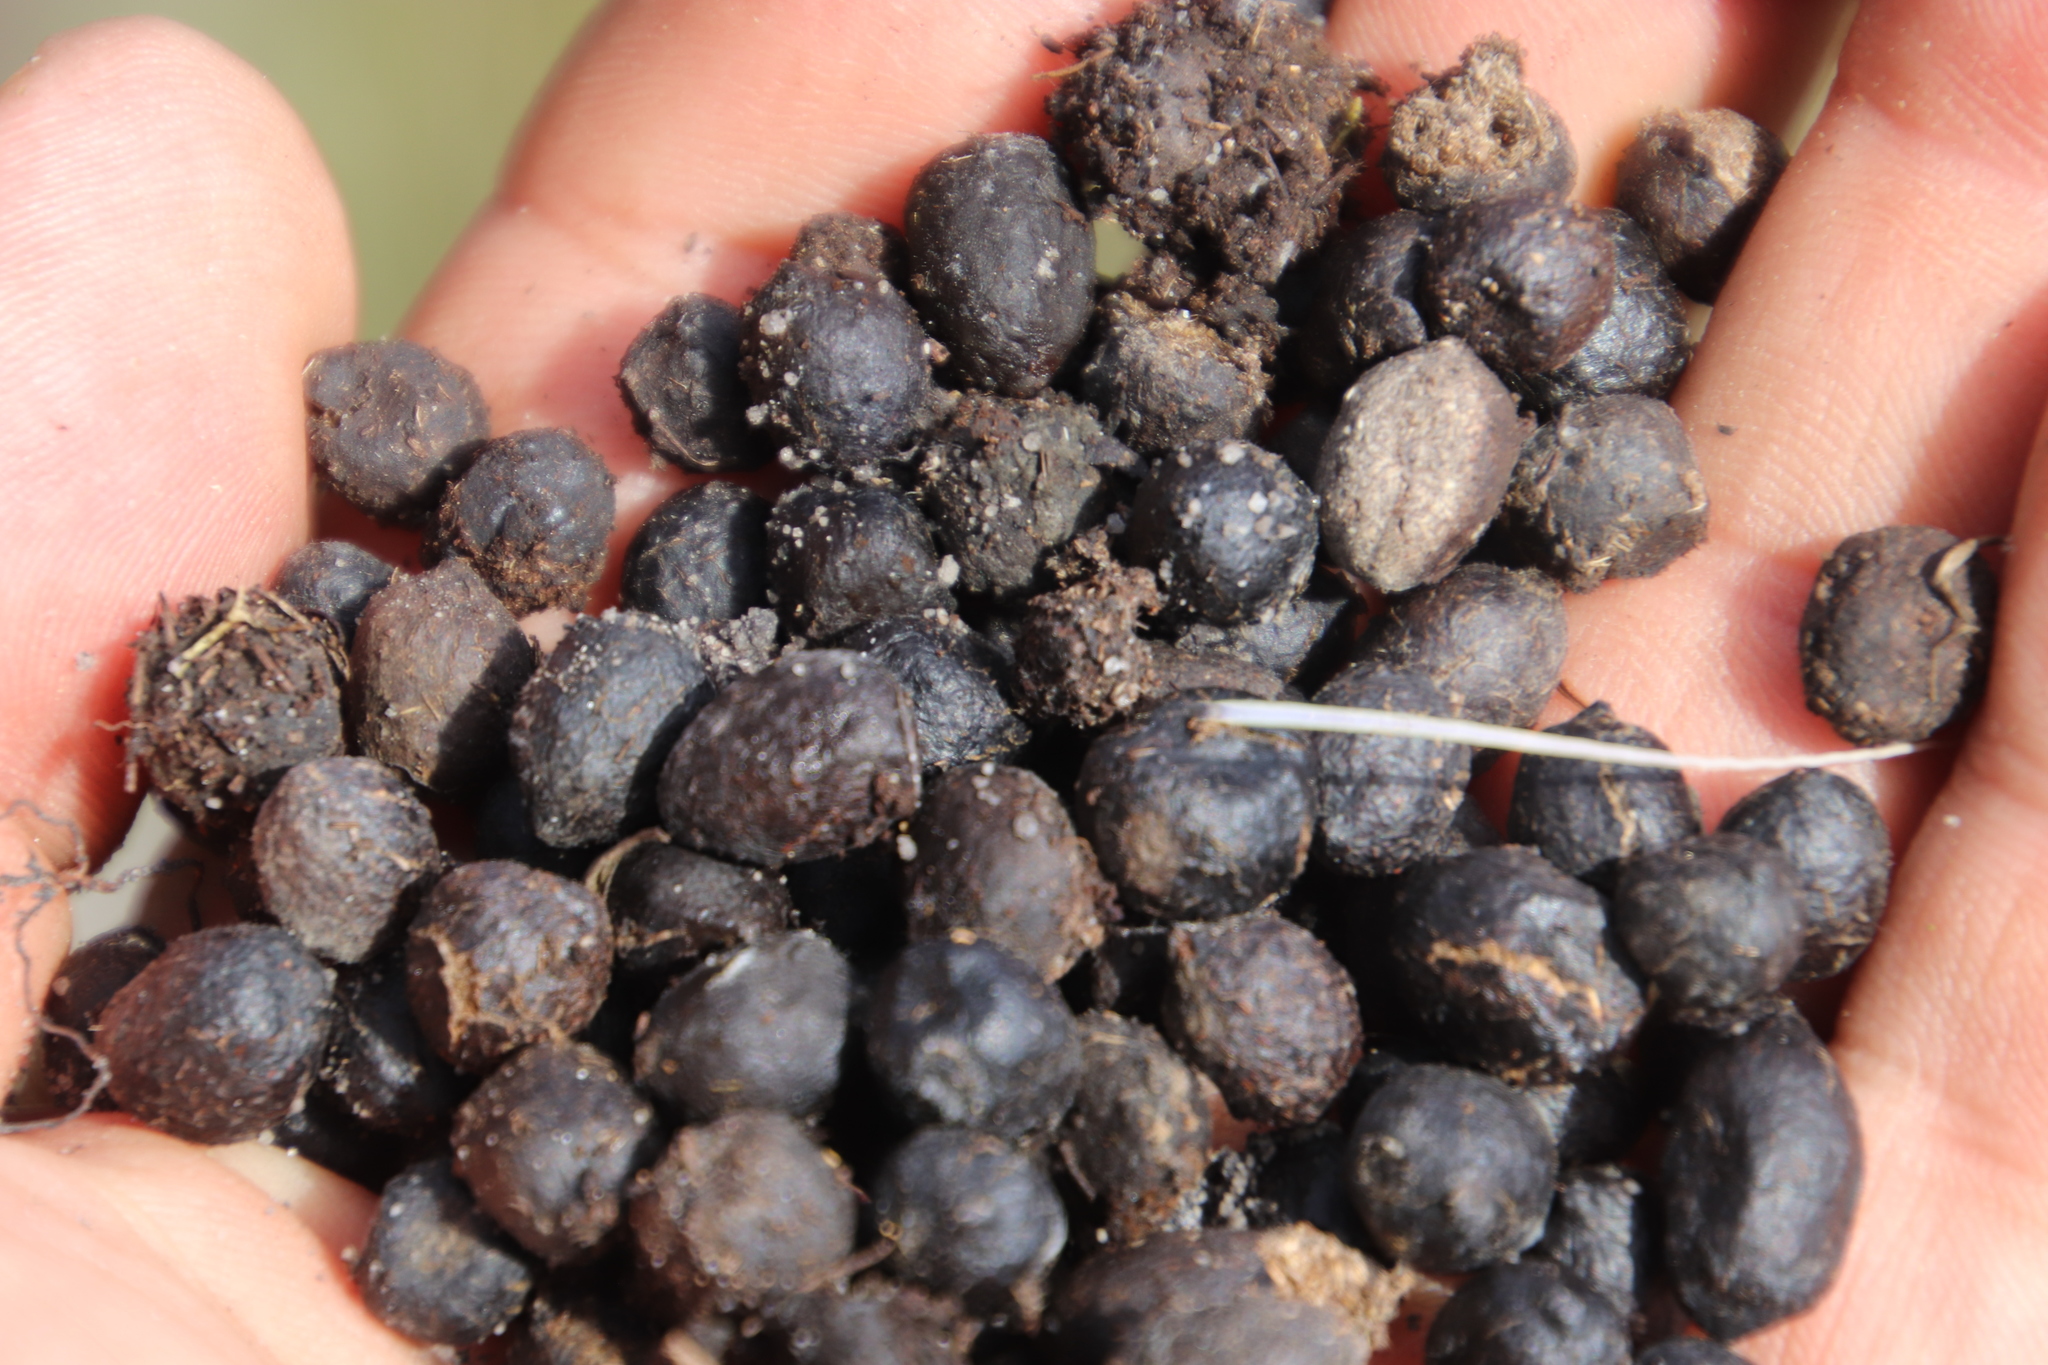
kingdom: Animalia
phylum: Chordata
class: Mammalia
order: Artiodactyla
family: Bovidae
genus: Oreotragus
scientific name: Oreotragus oreotragus
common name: Klipspringer
